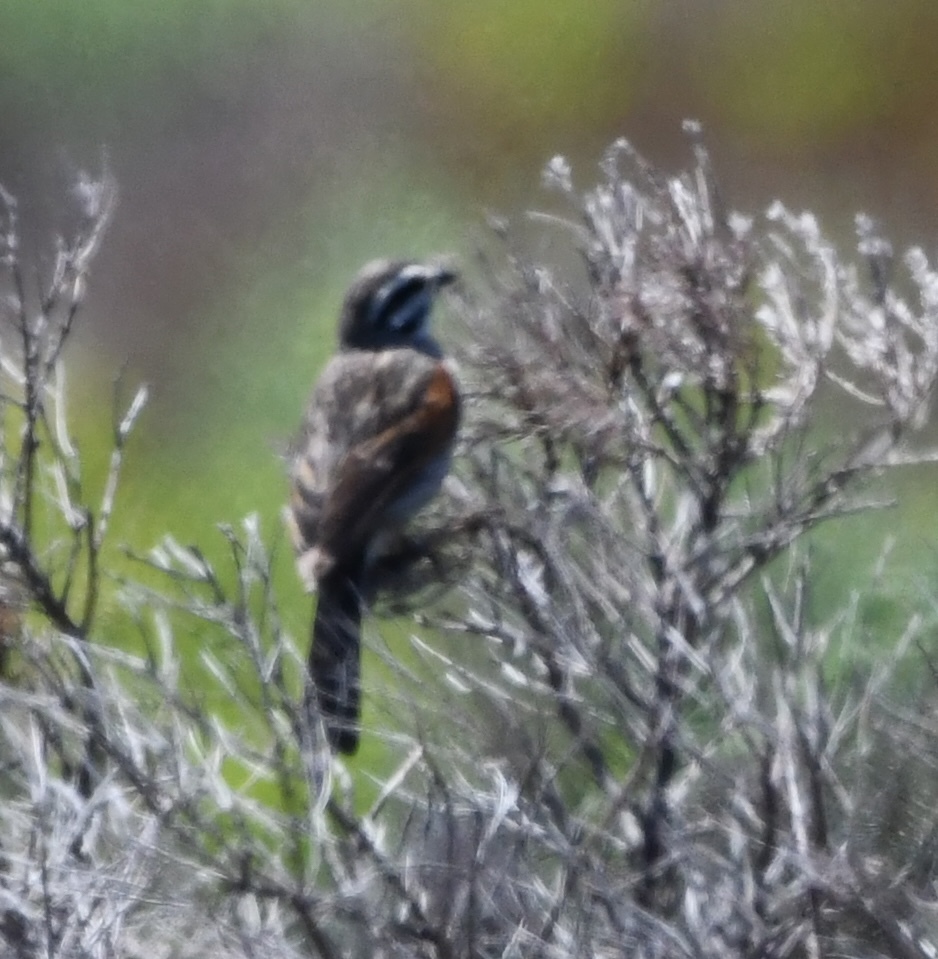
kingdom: Animalia
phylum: Chordata
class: Aves
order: Passeriformes
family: Emberizidae
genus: Emberiza
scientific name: Emberiza capensis
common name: Cape bunting
